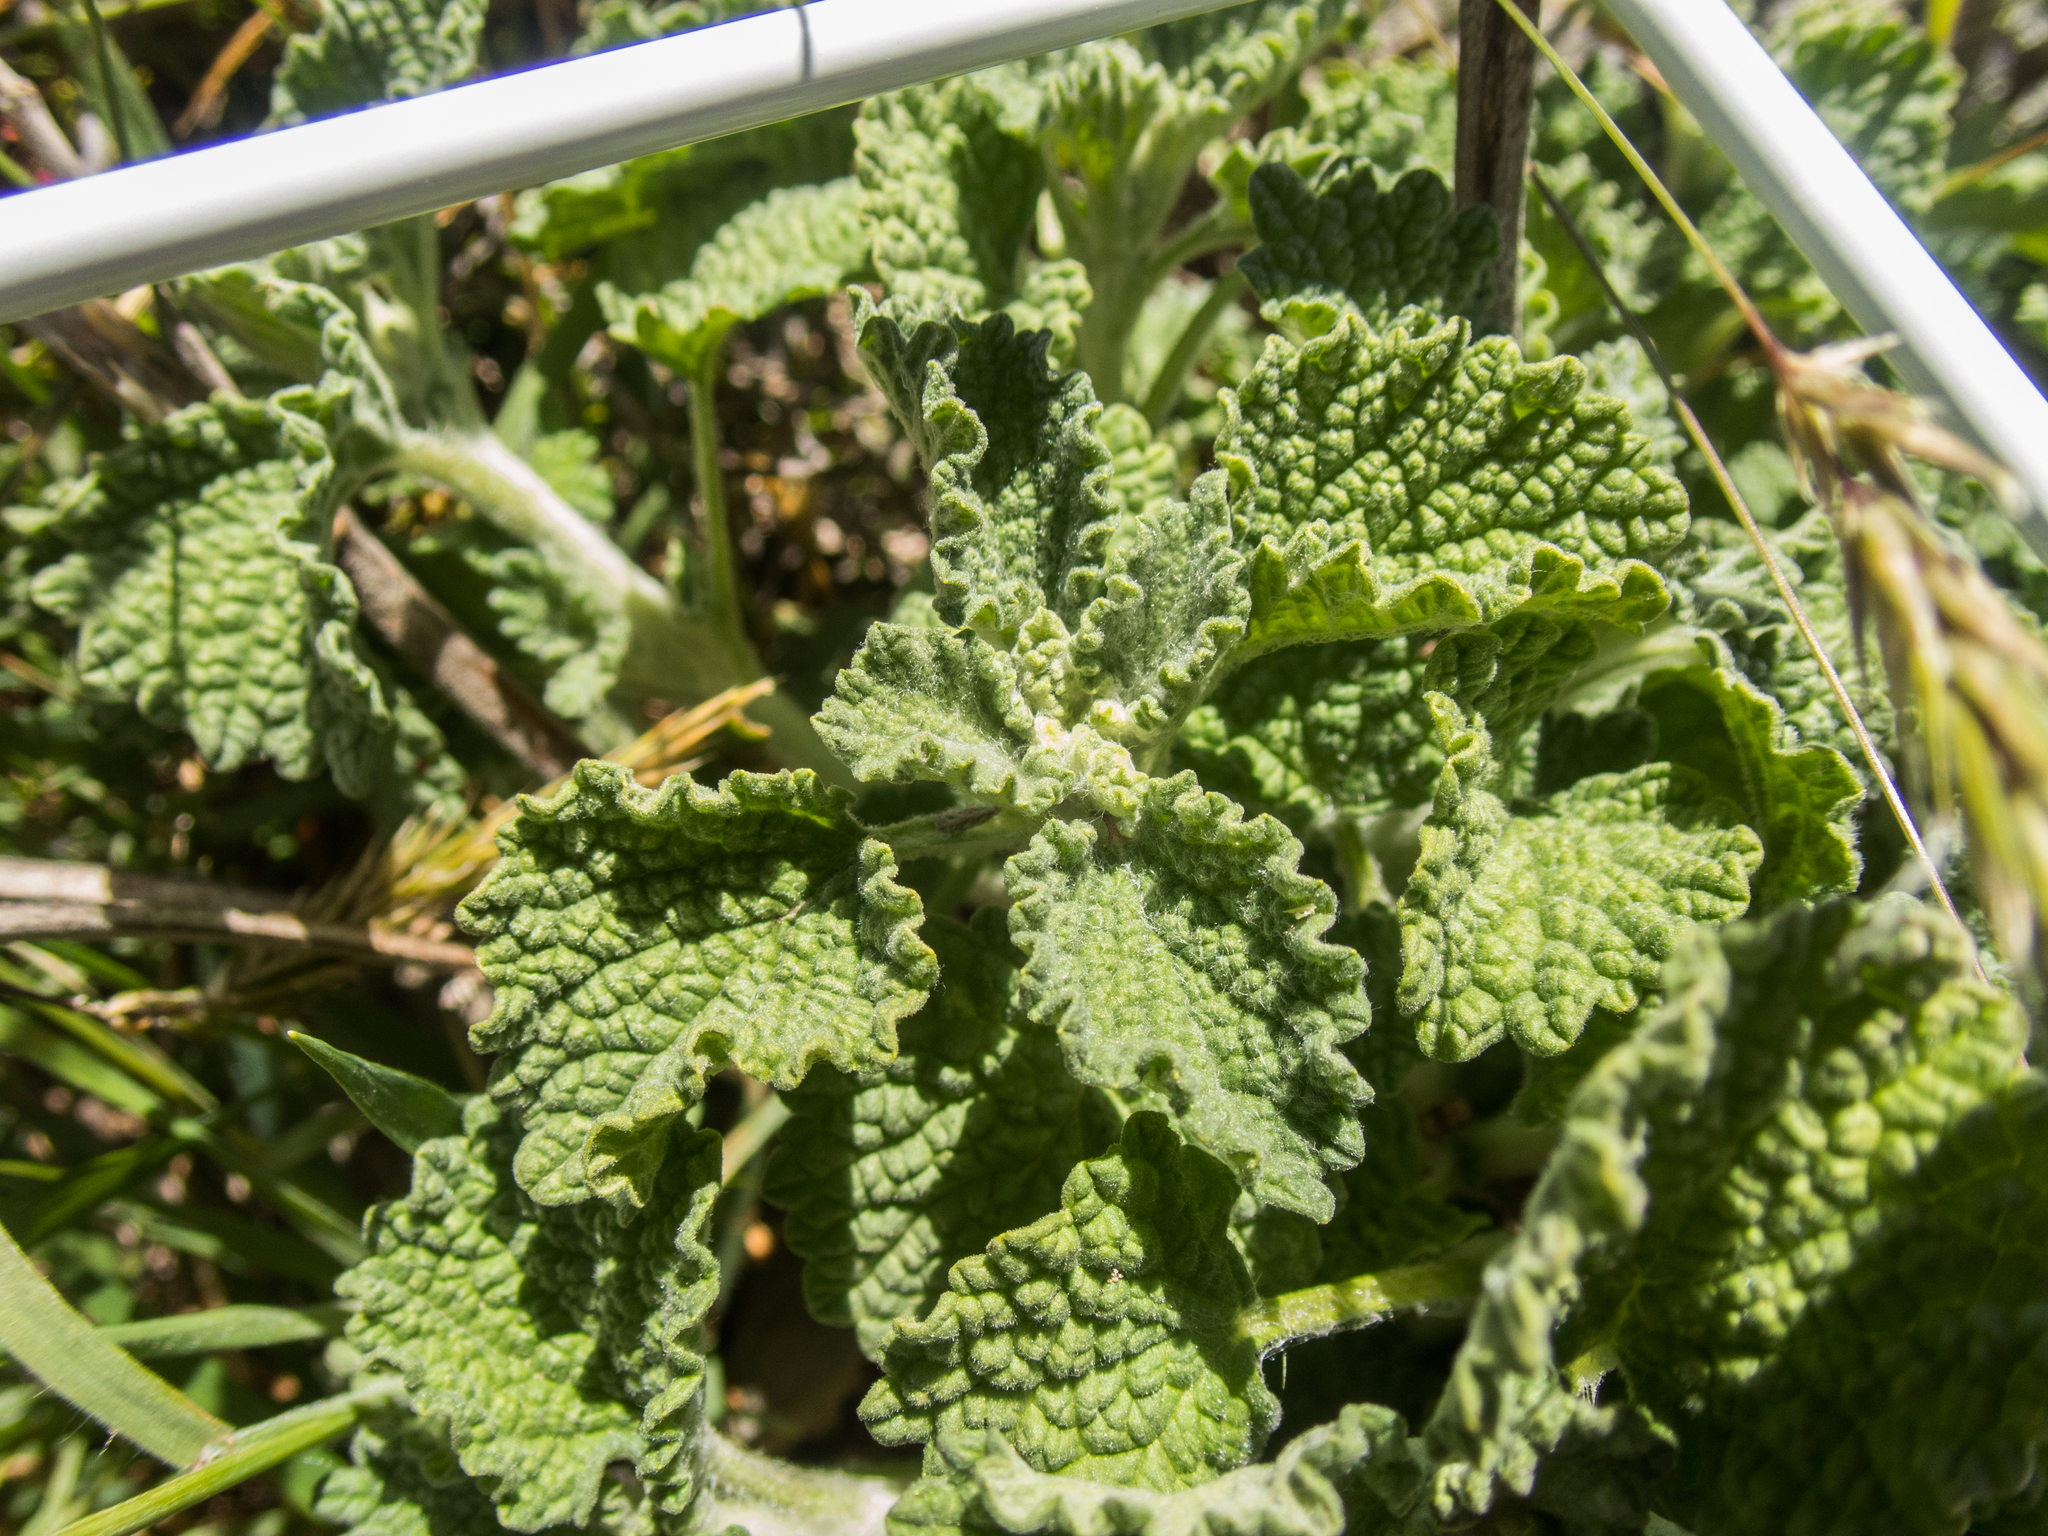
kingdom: Plantae
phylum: Tracheophyta
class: Magnoliopsida
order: Lamiales
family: Lamiaceae
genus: Marrubium
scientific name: Marrubium vulgare
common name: Horehound
